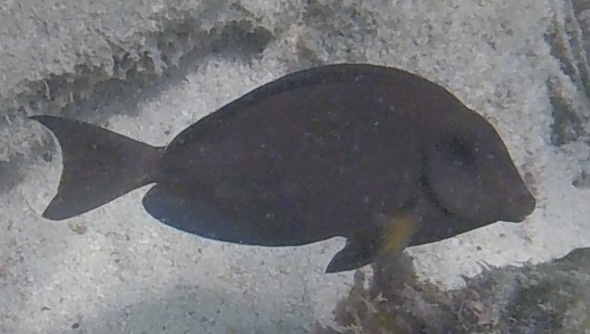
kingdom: Animalia
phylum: Chordata
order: Perciformes
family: Acanthuridae
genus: Acanthurus
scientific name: Acanthurus bahianus
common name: Ocean surgeon
